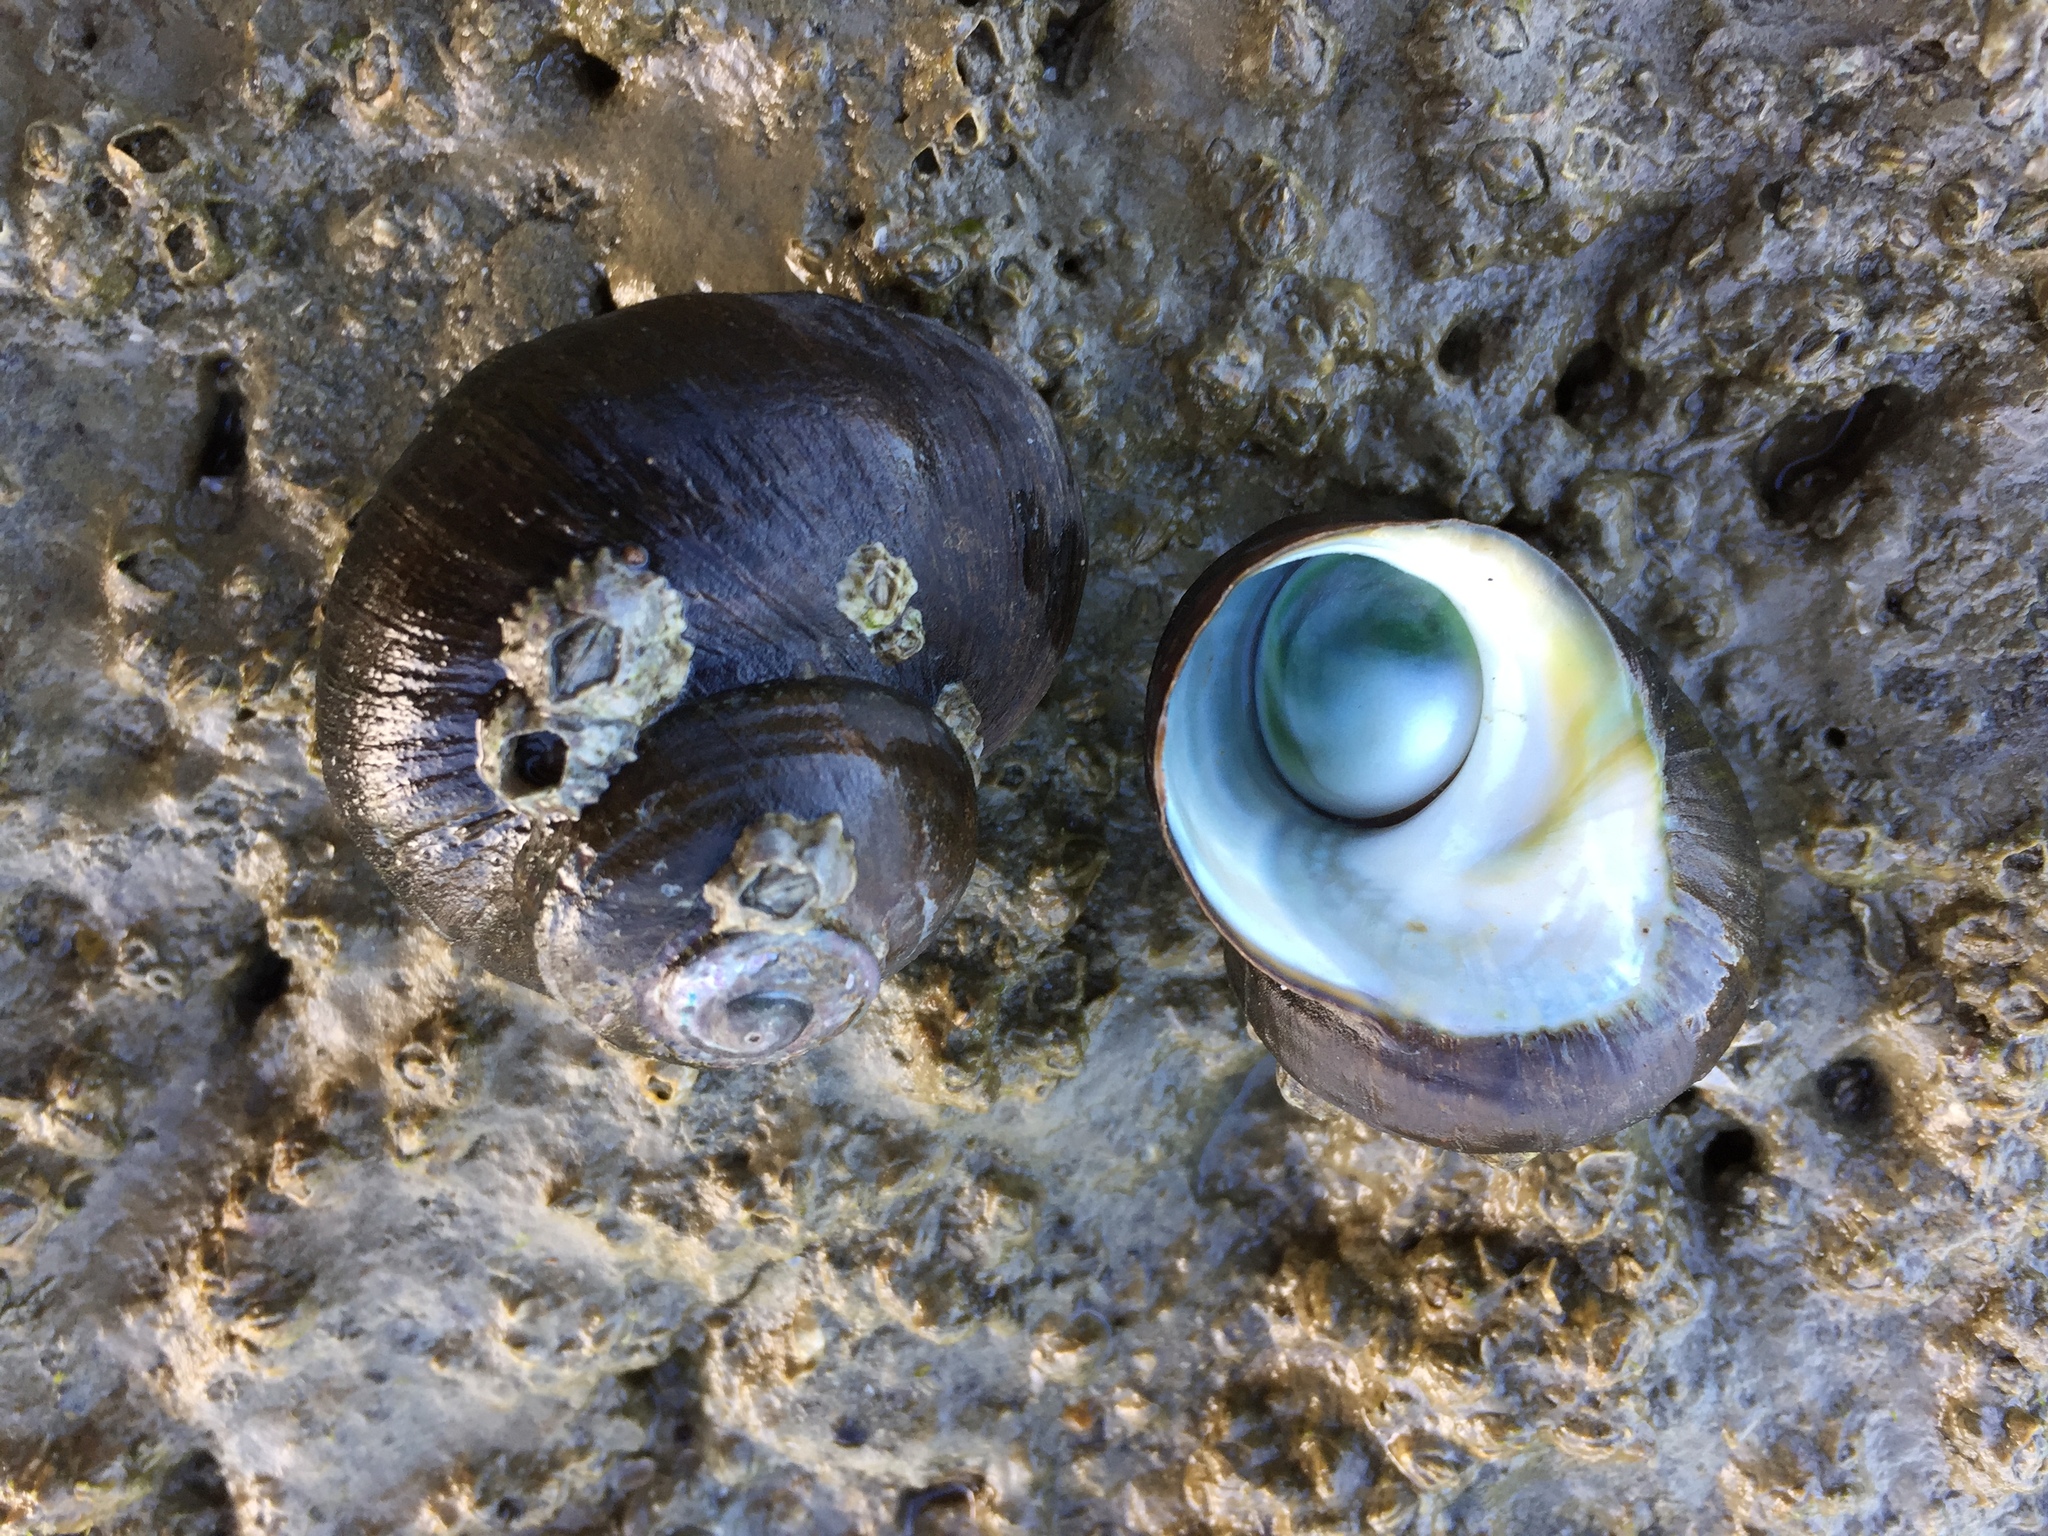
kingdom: Animalia
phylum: Mollusca
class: Gastropoda
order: Trochida
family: Turbinidae
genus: Lunella
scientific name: Lunella smaragda
